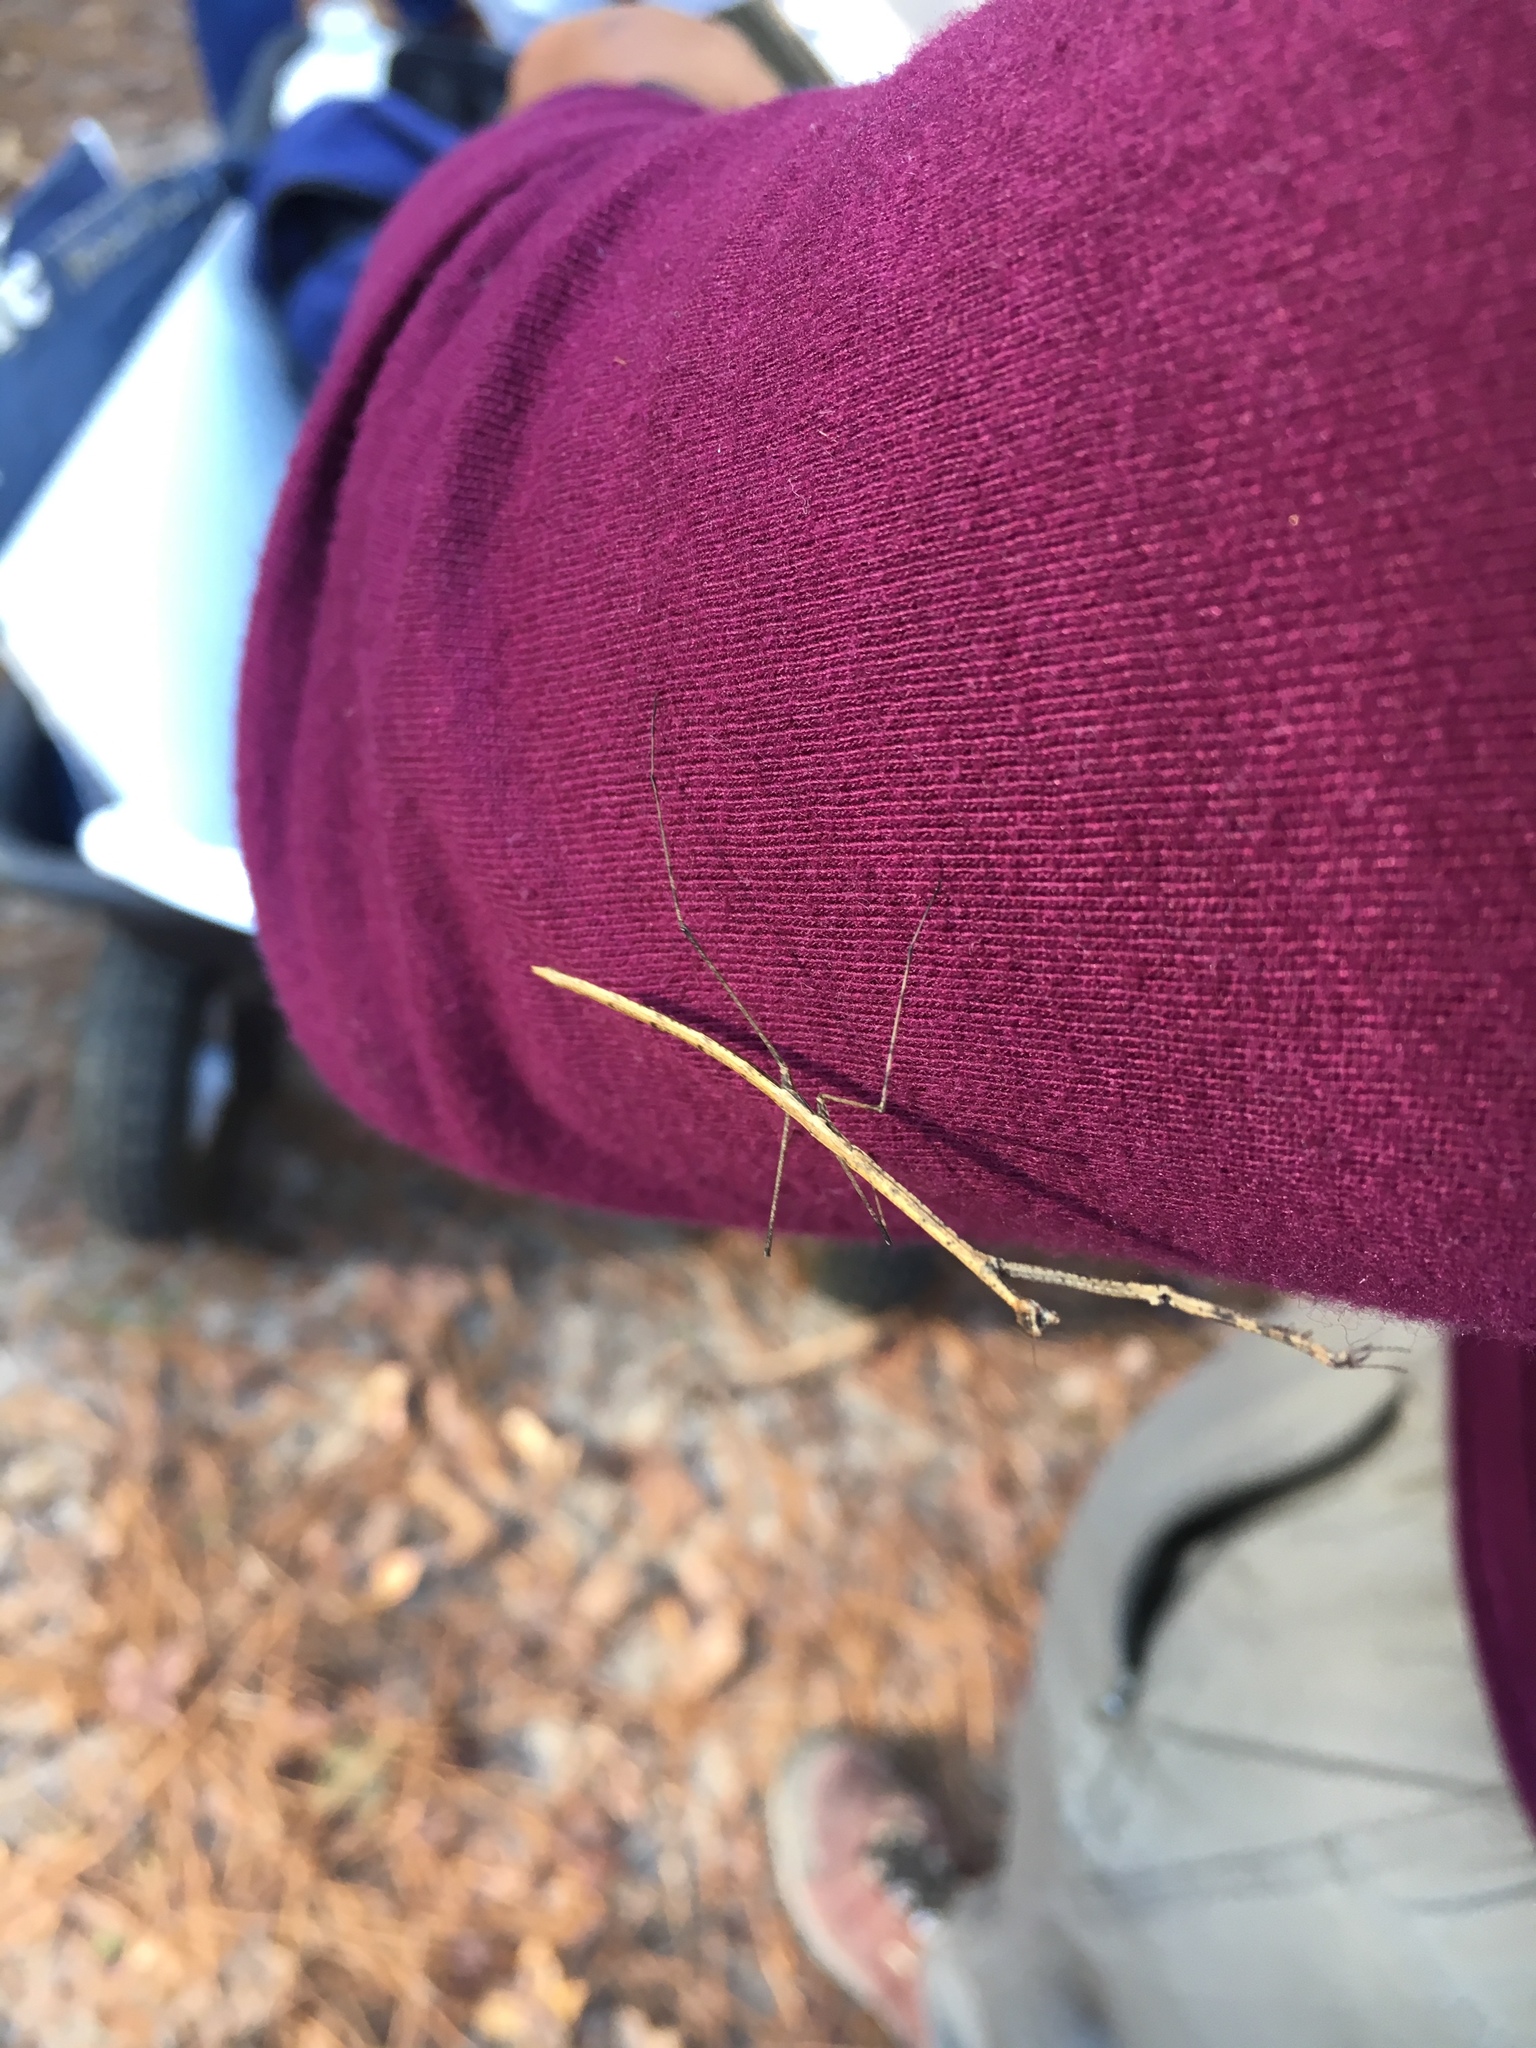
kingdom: Animalia
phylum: Arthropoda
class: Insecta
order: Mantodea
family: Thespidae
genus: Thesprotia
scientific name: Thesprotia graminis
